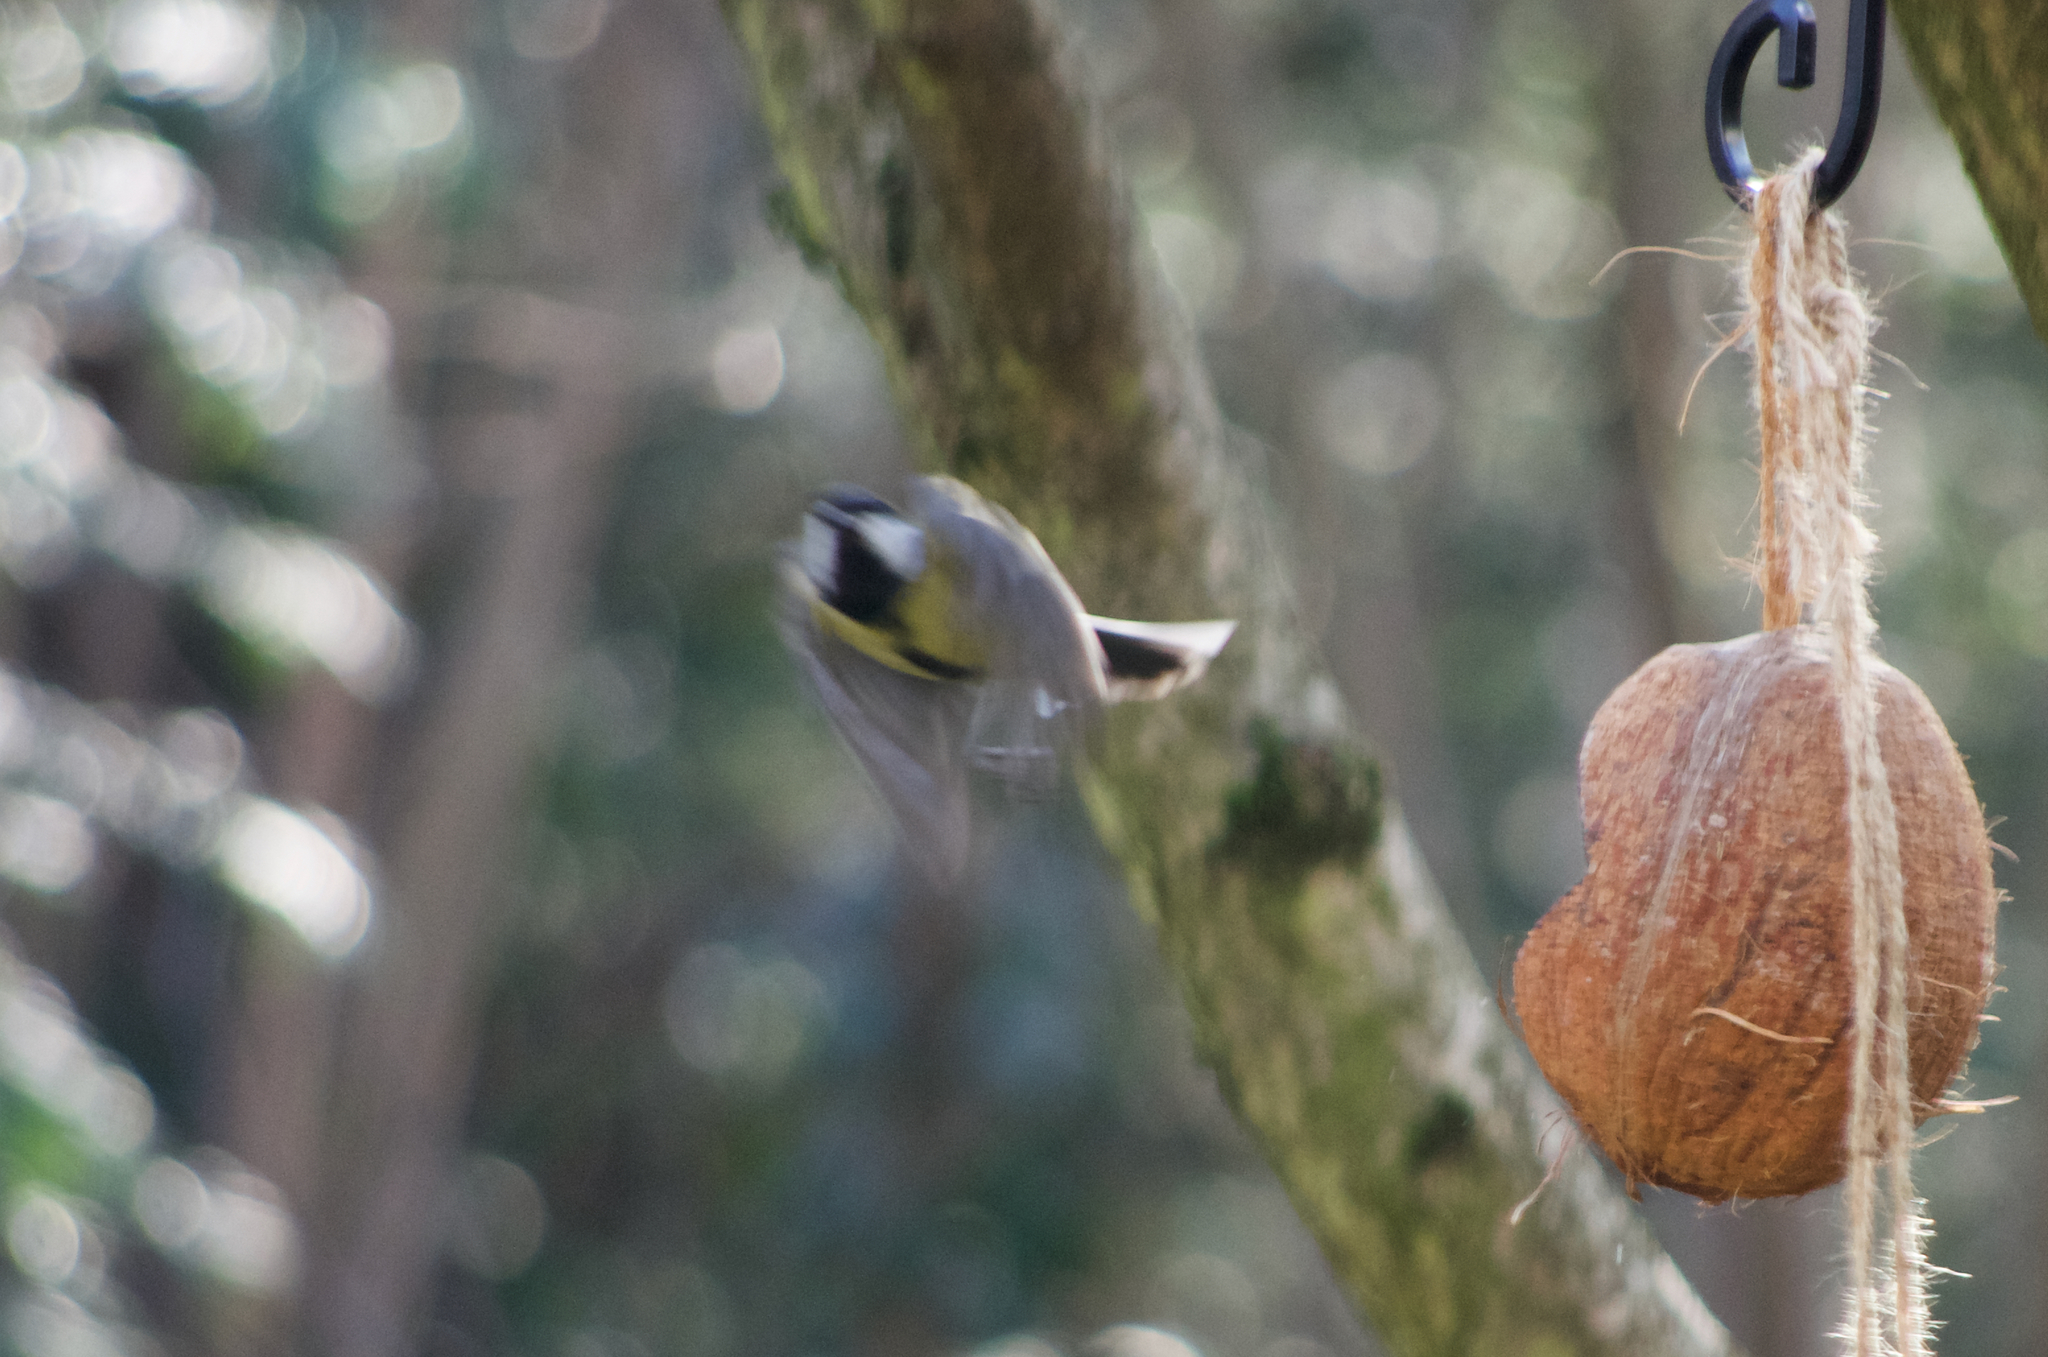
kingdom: Animalia
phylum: Chordata
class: Aves
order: Passeriformes
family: Paridae
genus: Parus
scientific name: Parus major
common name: Great tit
